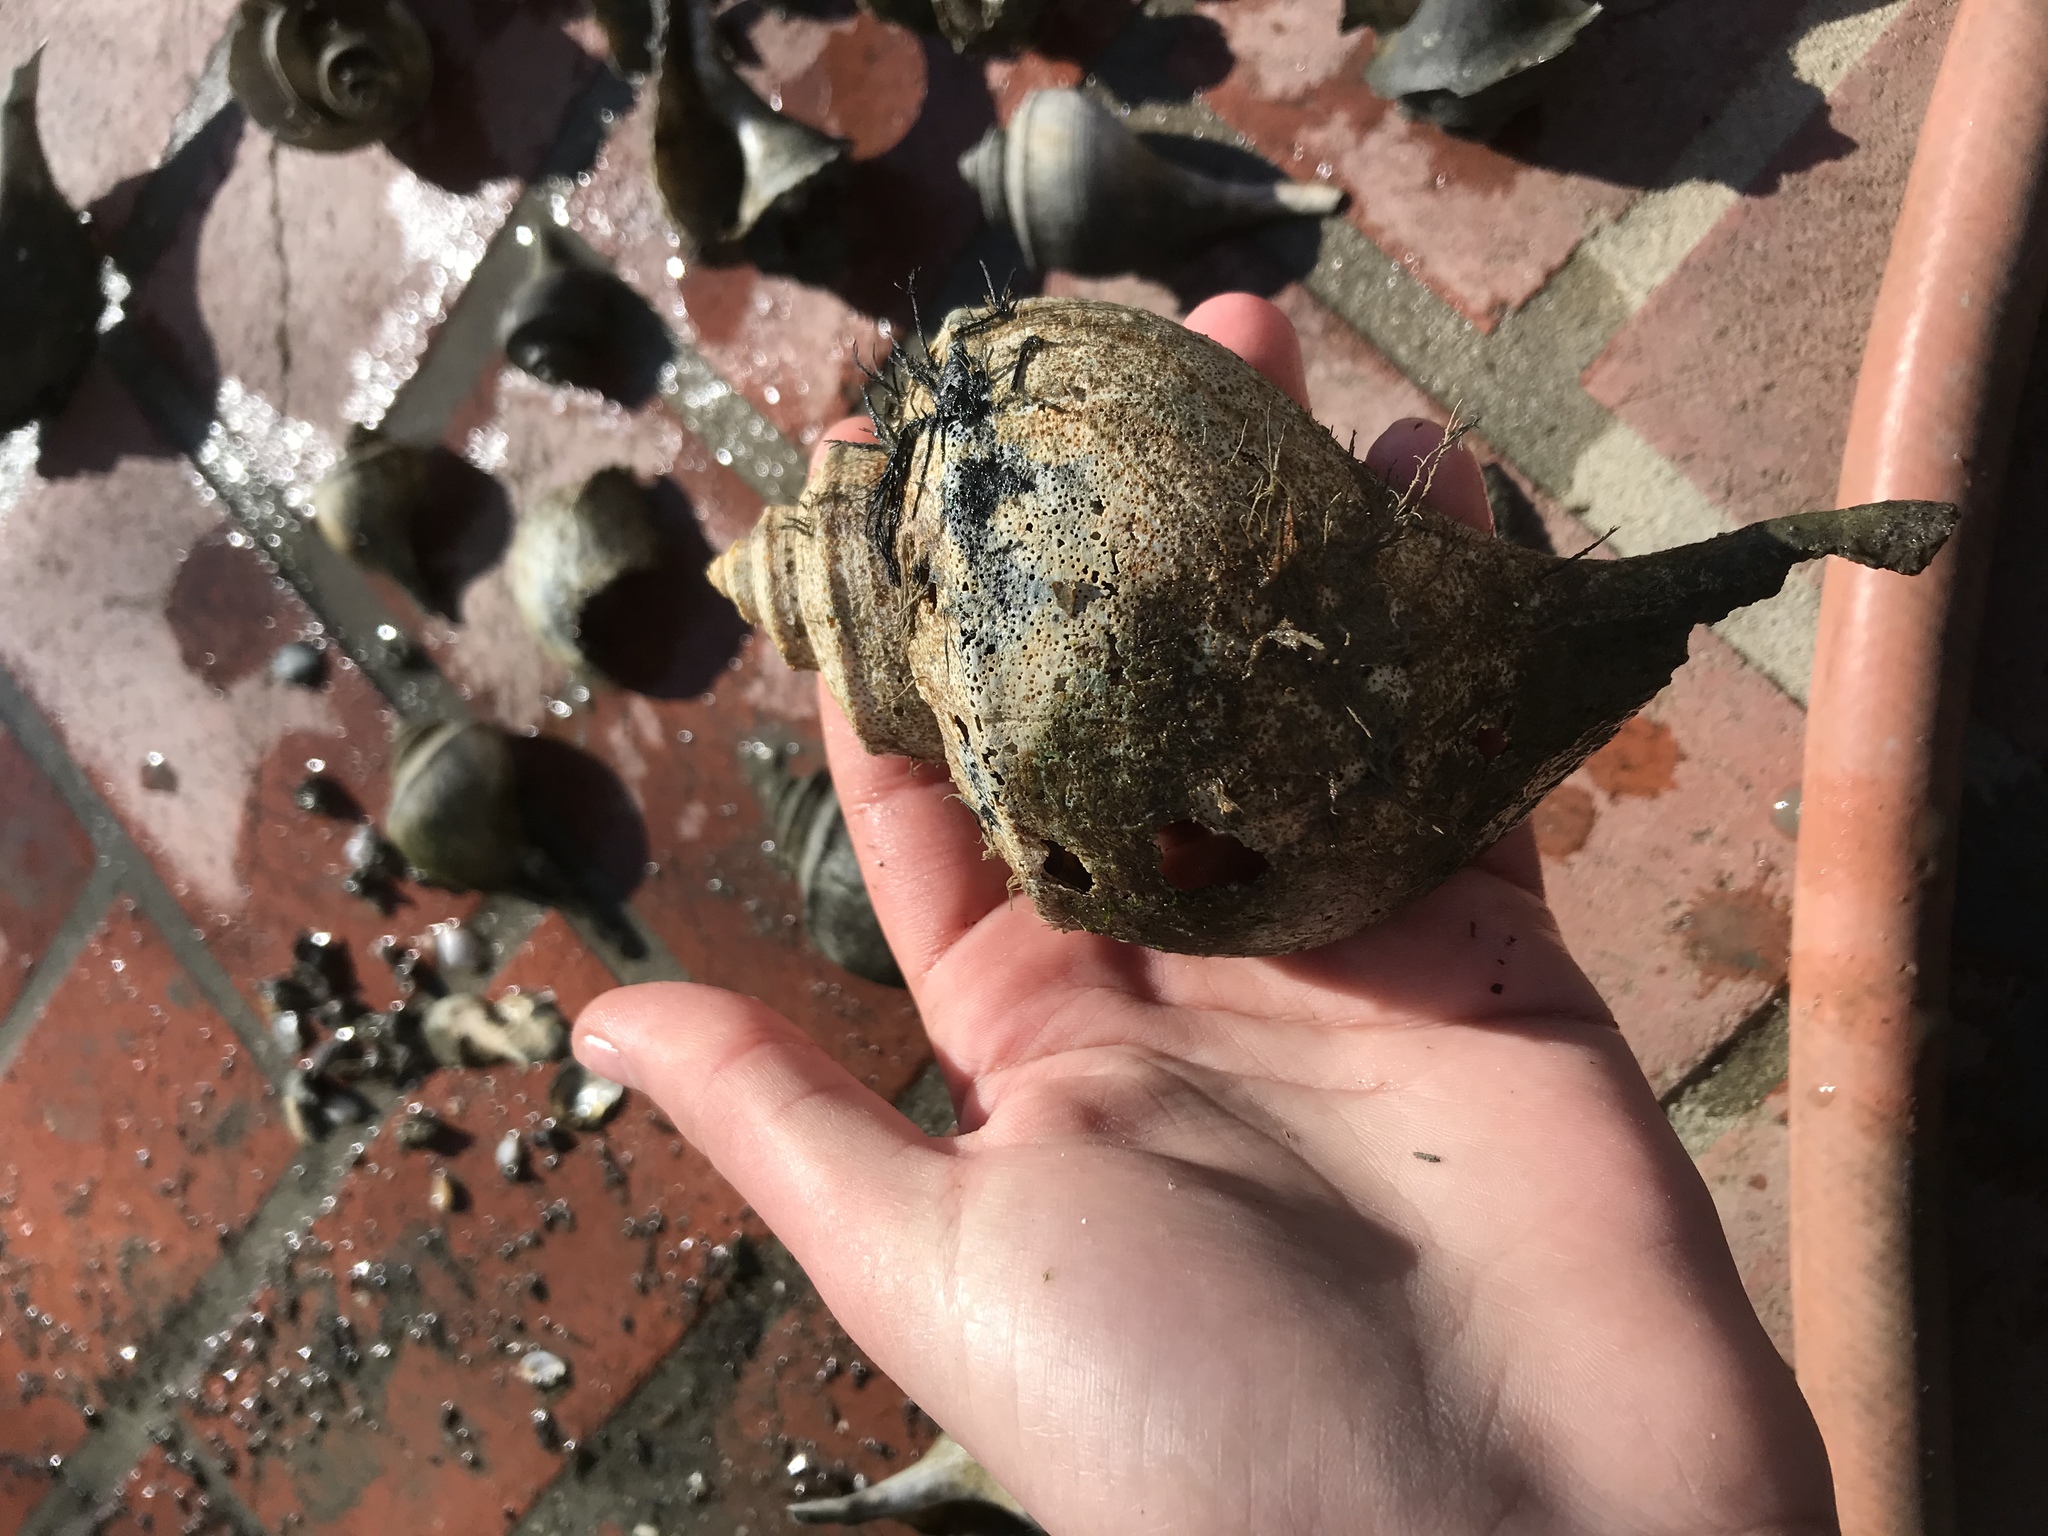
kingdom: Animalia
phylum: Mollusca
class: Gastropoda
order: Neogastropoda
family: Busyconidae
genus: Busycotypus
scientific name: Busycotypus canaliculatus
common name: Channeled whelk
